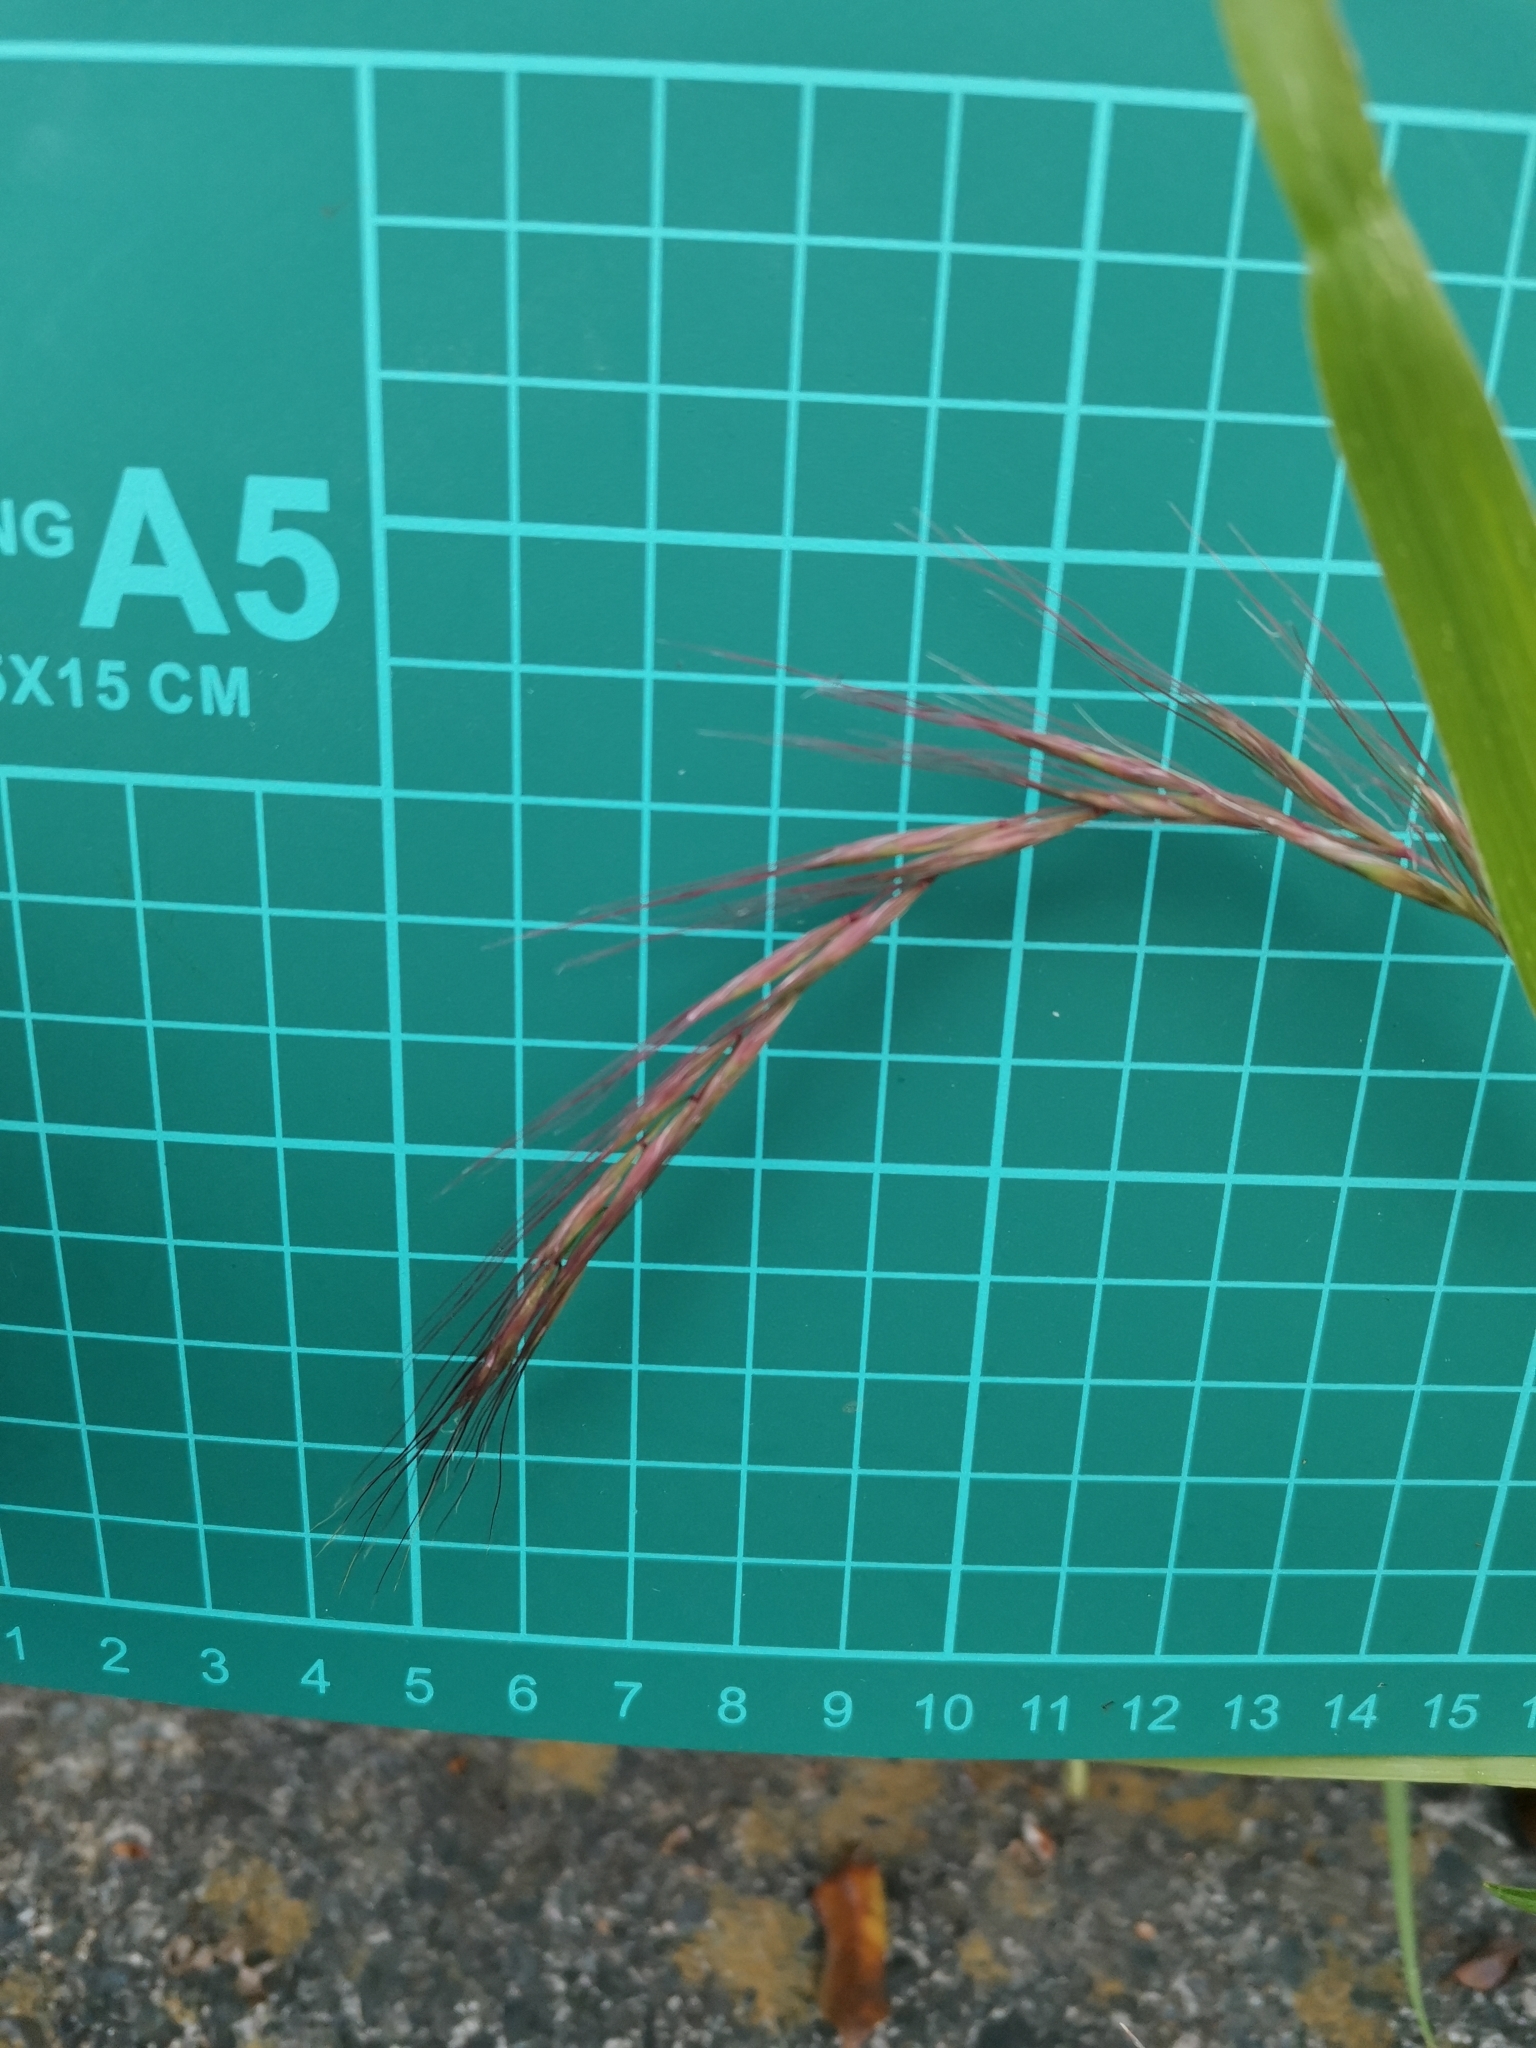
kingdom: Plantae
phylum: Tracheophyta
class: Liliopsida
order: Poales
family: Poaceae
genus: Elymus
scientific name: Elymus tsukushiensis
